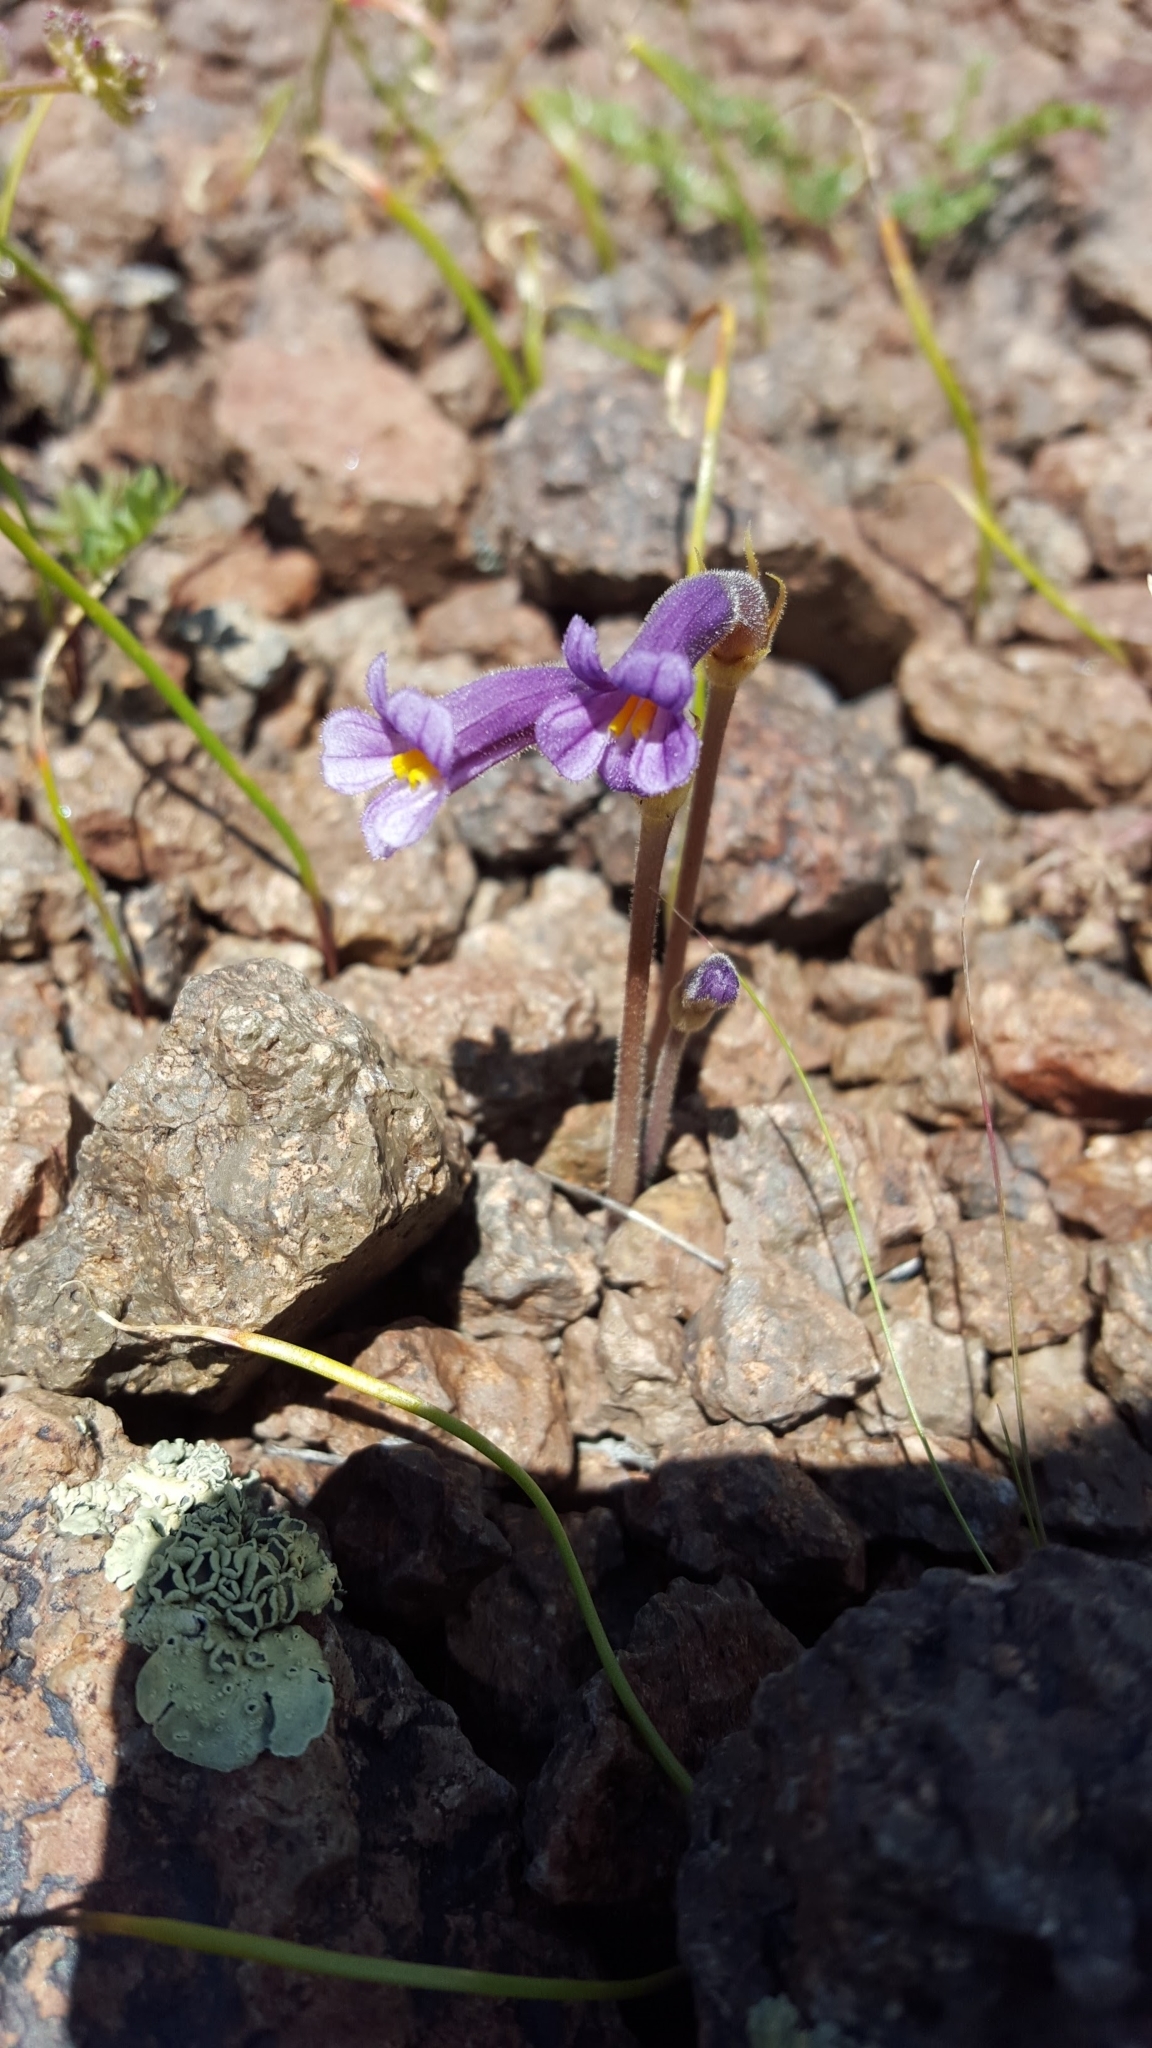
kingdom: Plantae
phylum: Tracheophyta
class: Magnoliopsida
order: Lamiales
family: Orobanchaceae
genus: Aphyllon
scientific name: Aphyllon uniflorum
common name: One-flowered broomrape
